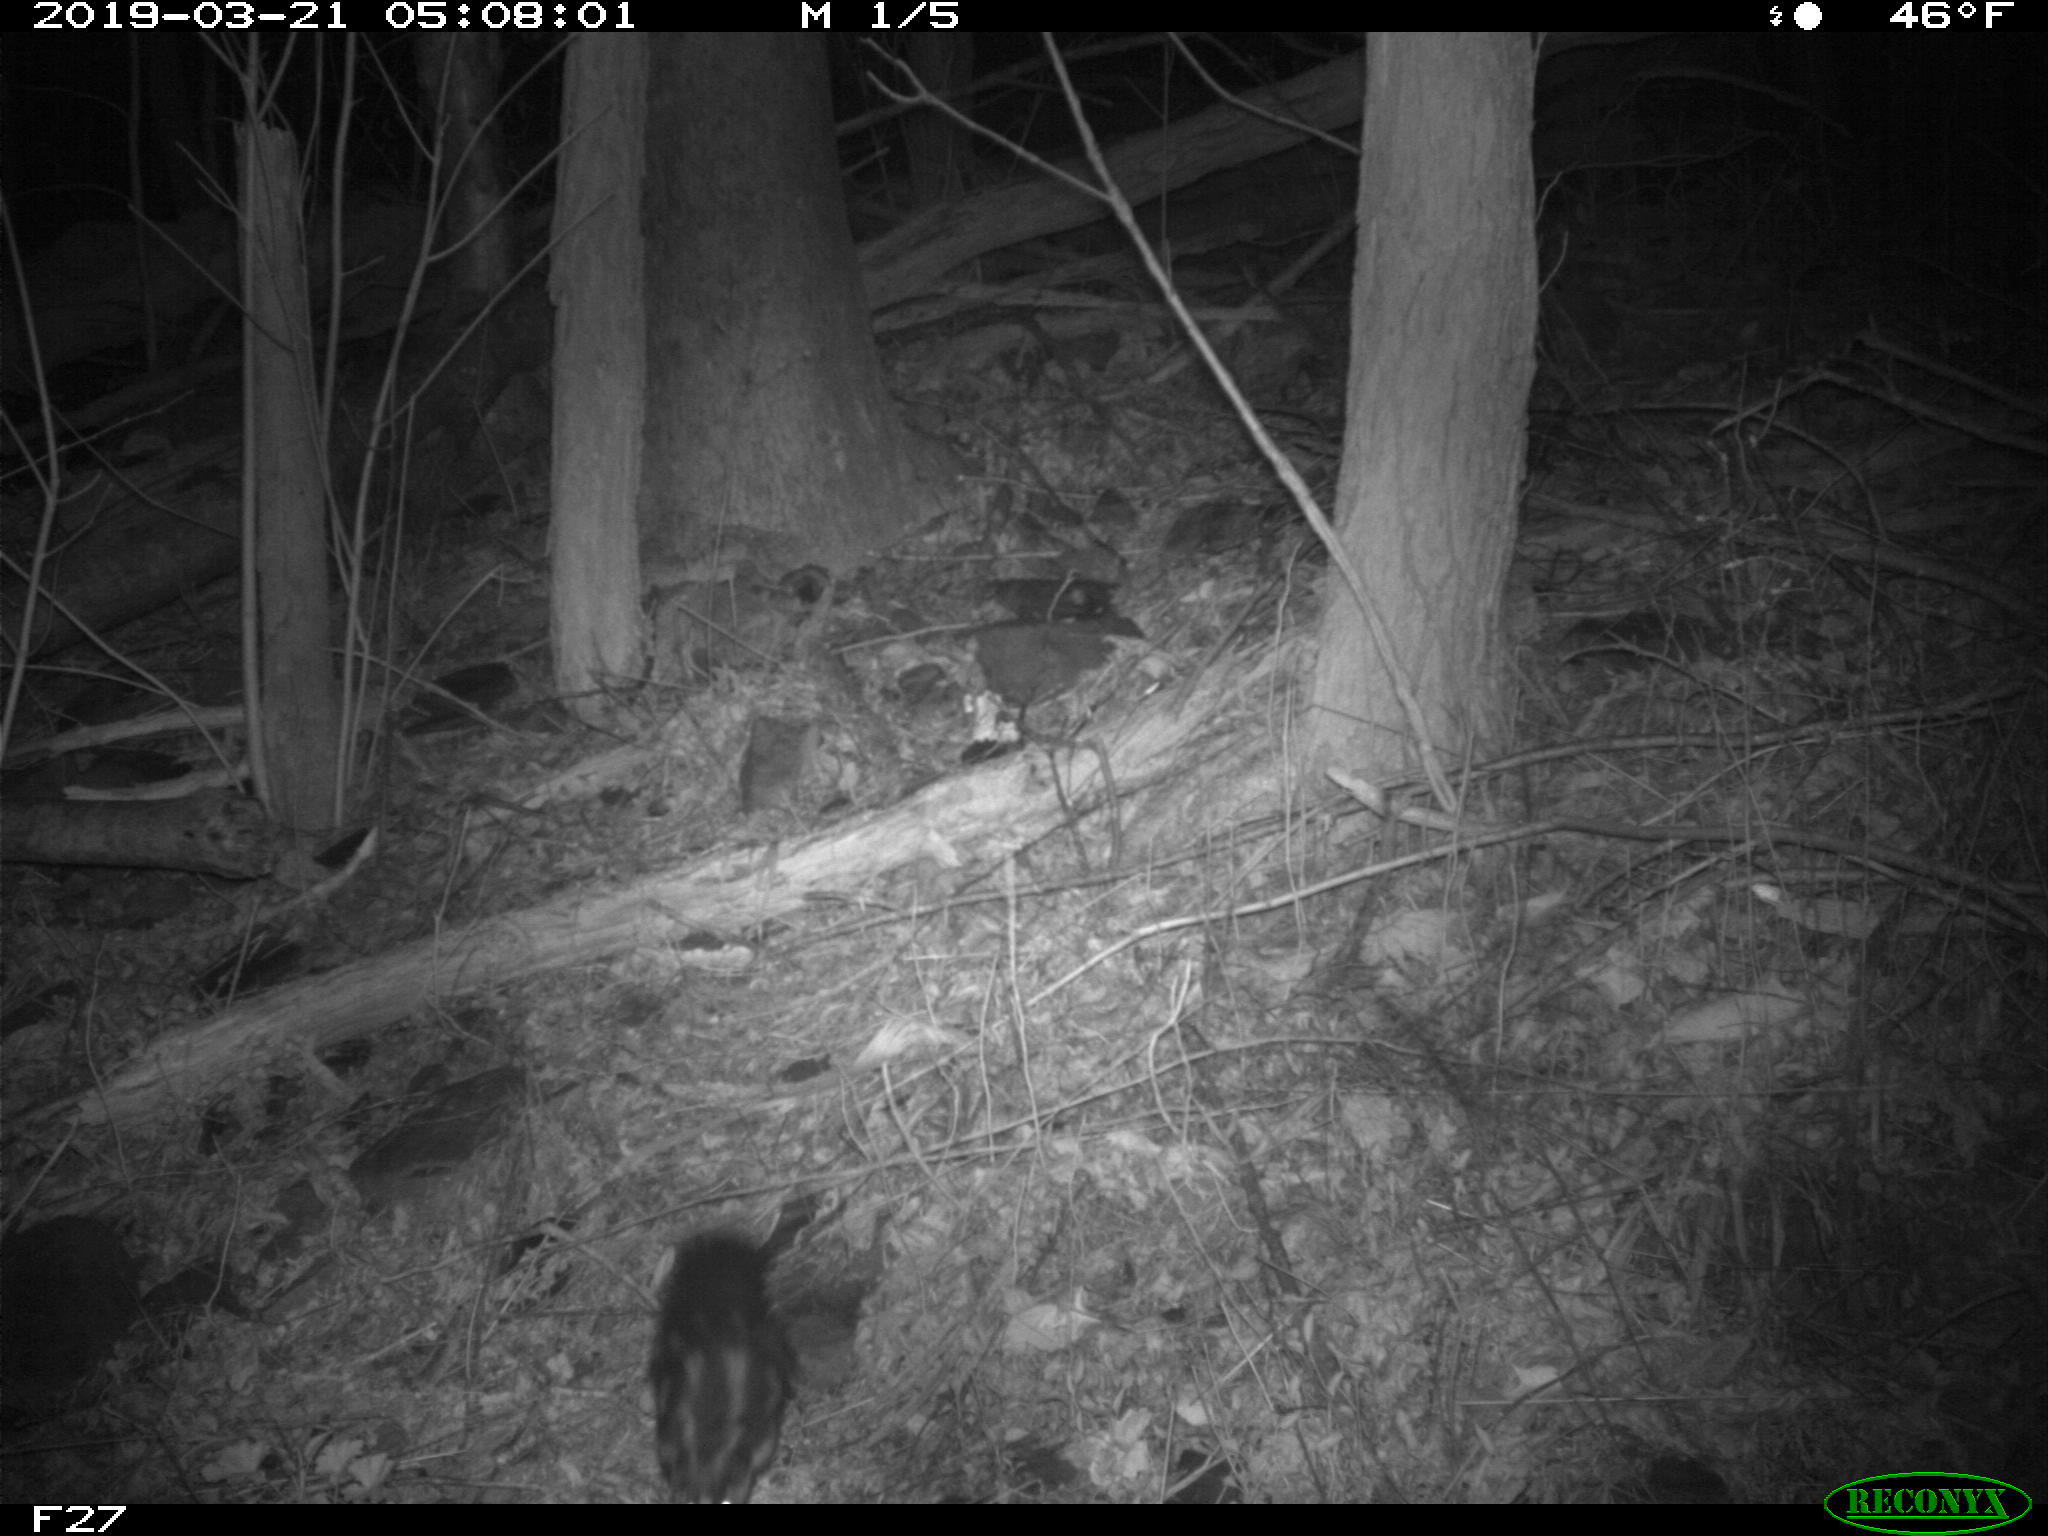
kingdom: Animalia
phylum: Chordata
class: Mammalia
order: Carnivora
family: Mephitidae
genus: Spilogale
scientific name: Spilogale putorius
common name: Eastern spotted skunk
